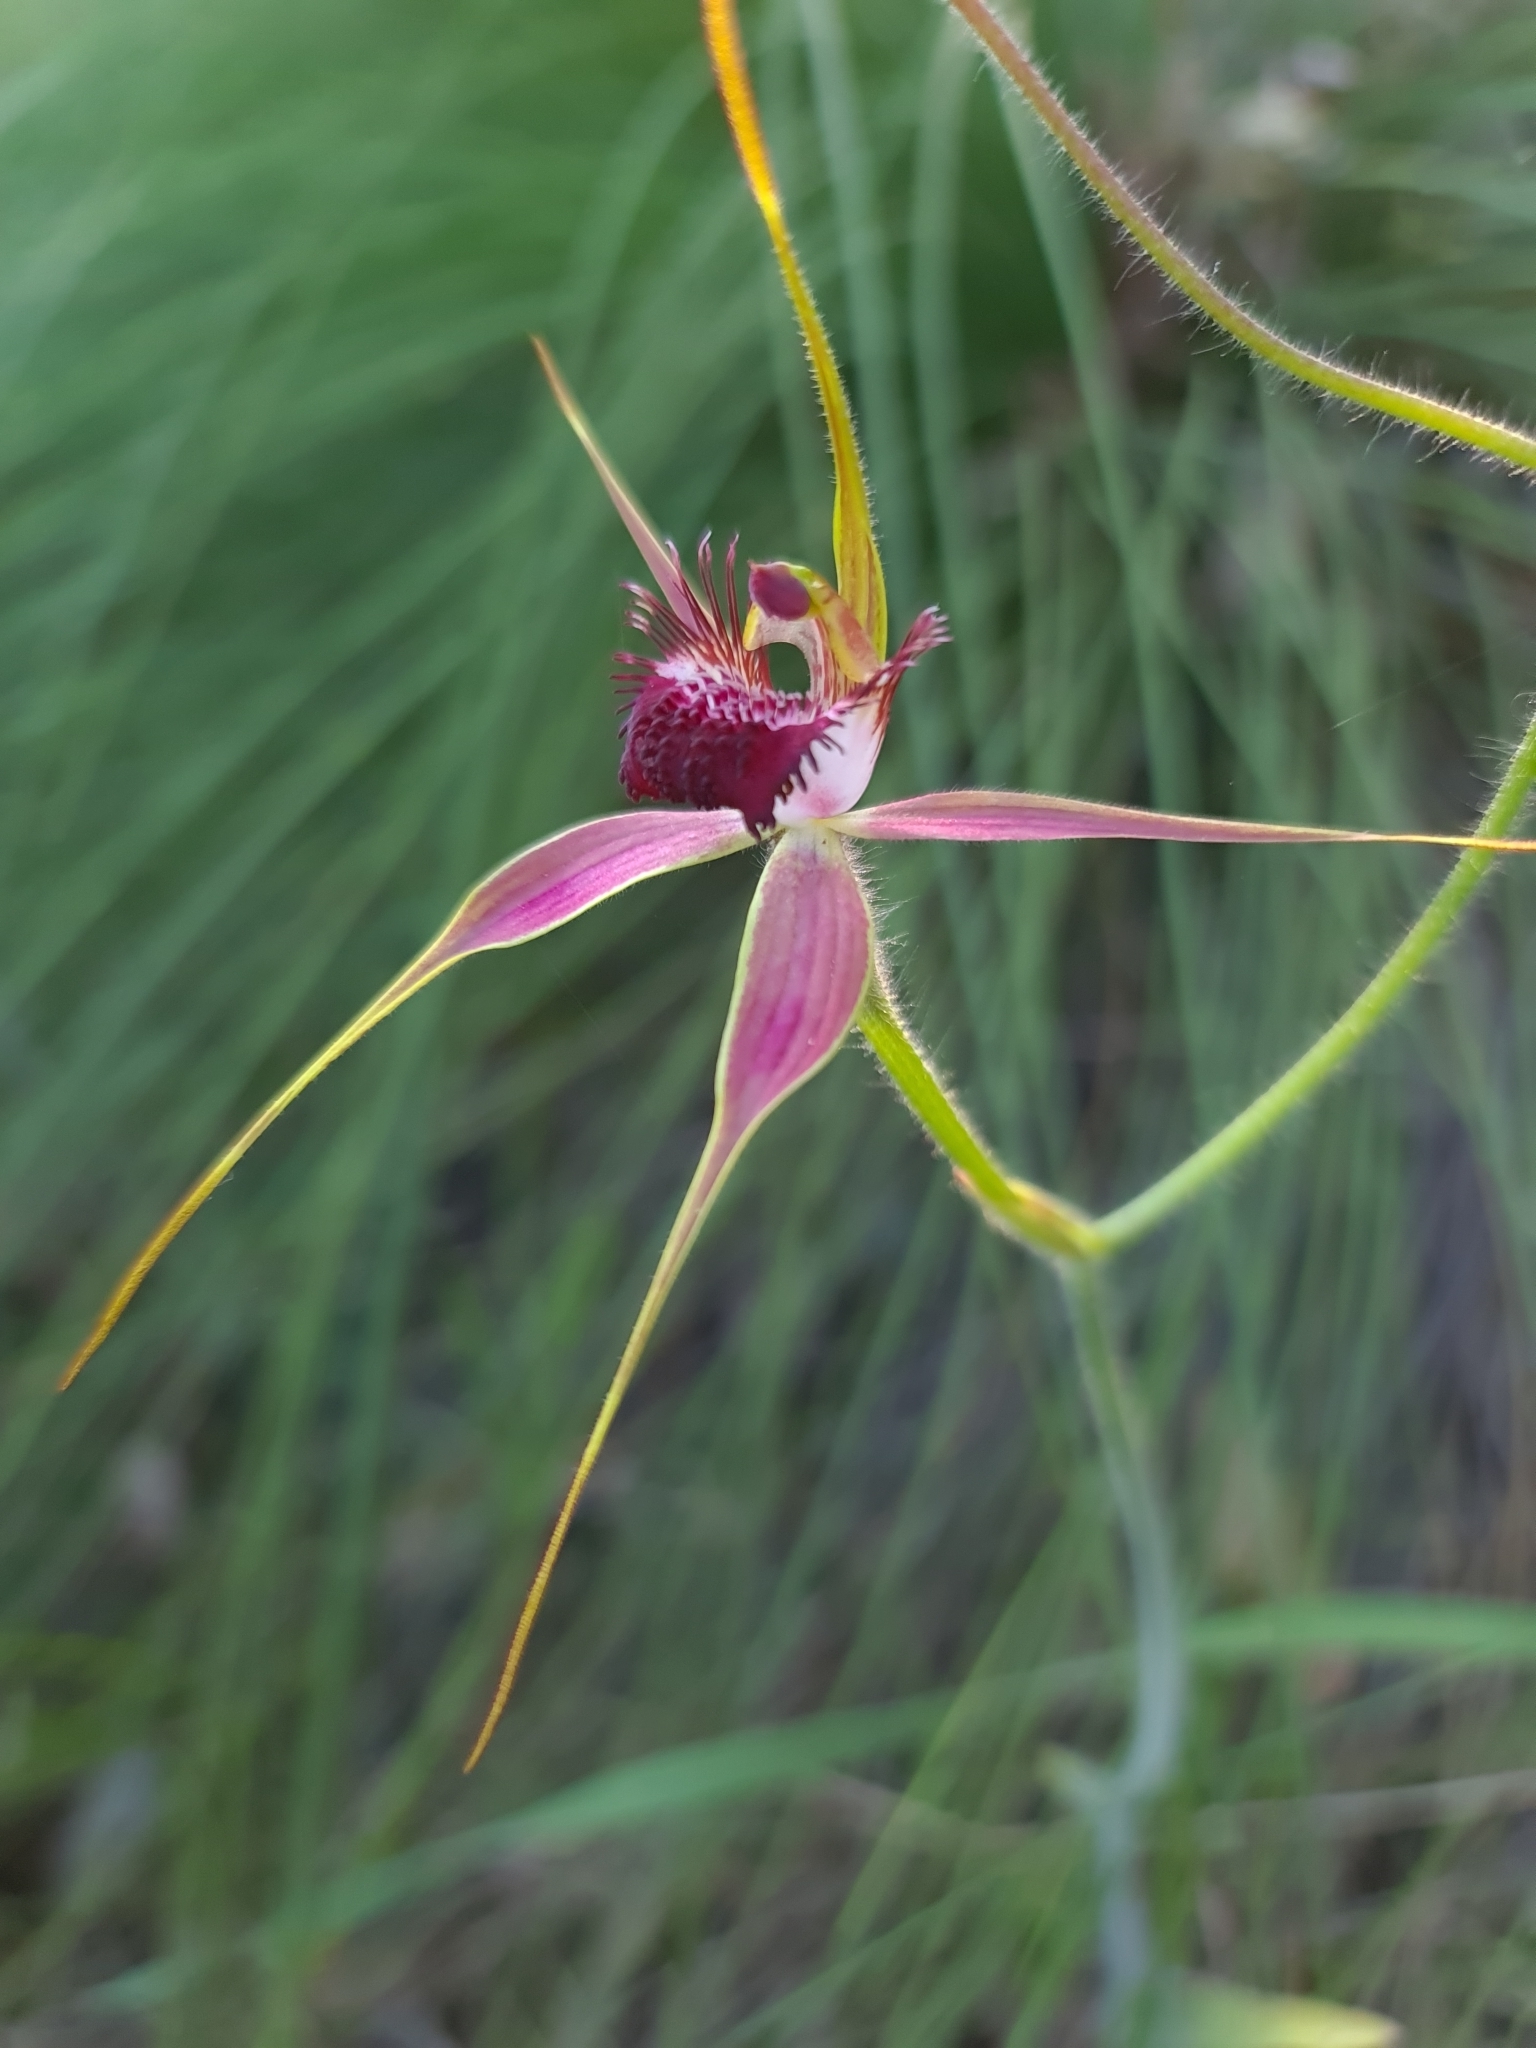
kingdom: Plantae
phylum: Tracheophyta
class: Liliopsida
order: Asparagales
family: Orchidaceae
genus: Caladenia
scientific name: Caladenia arenicola
